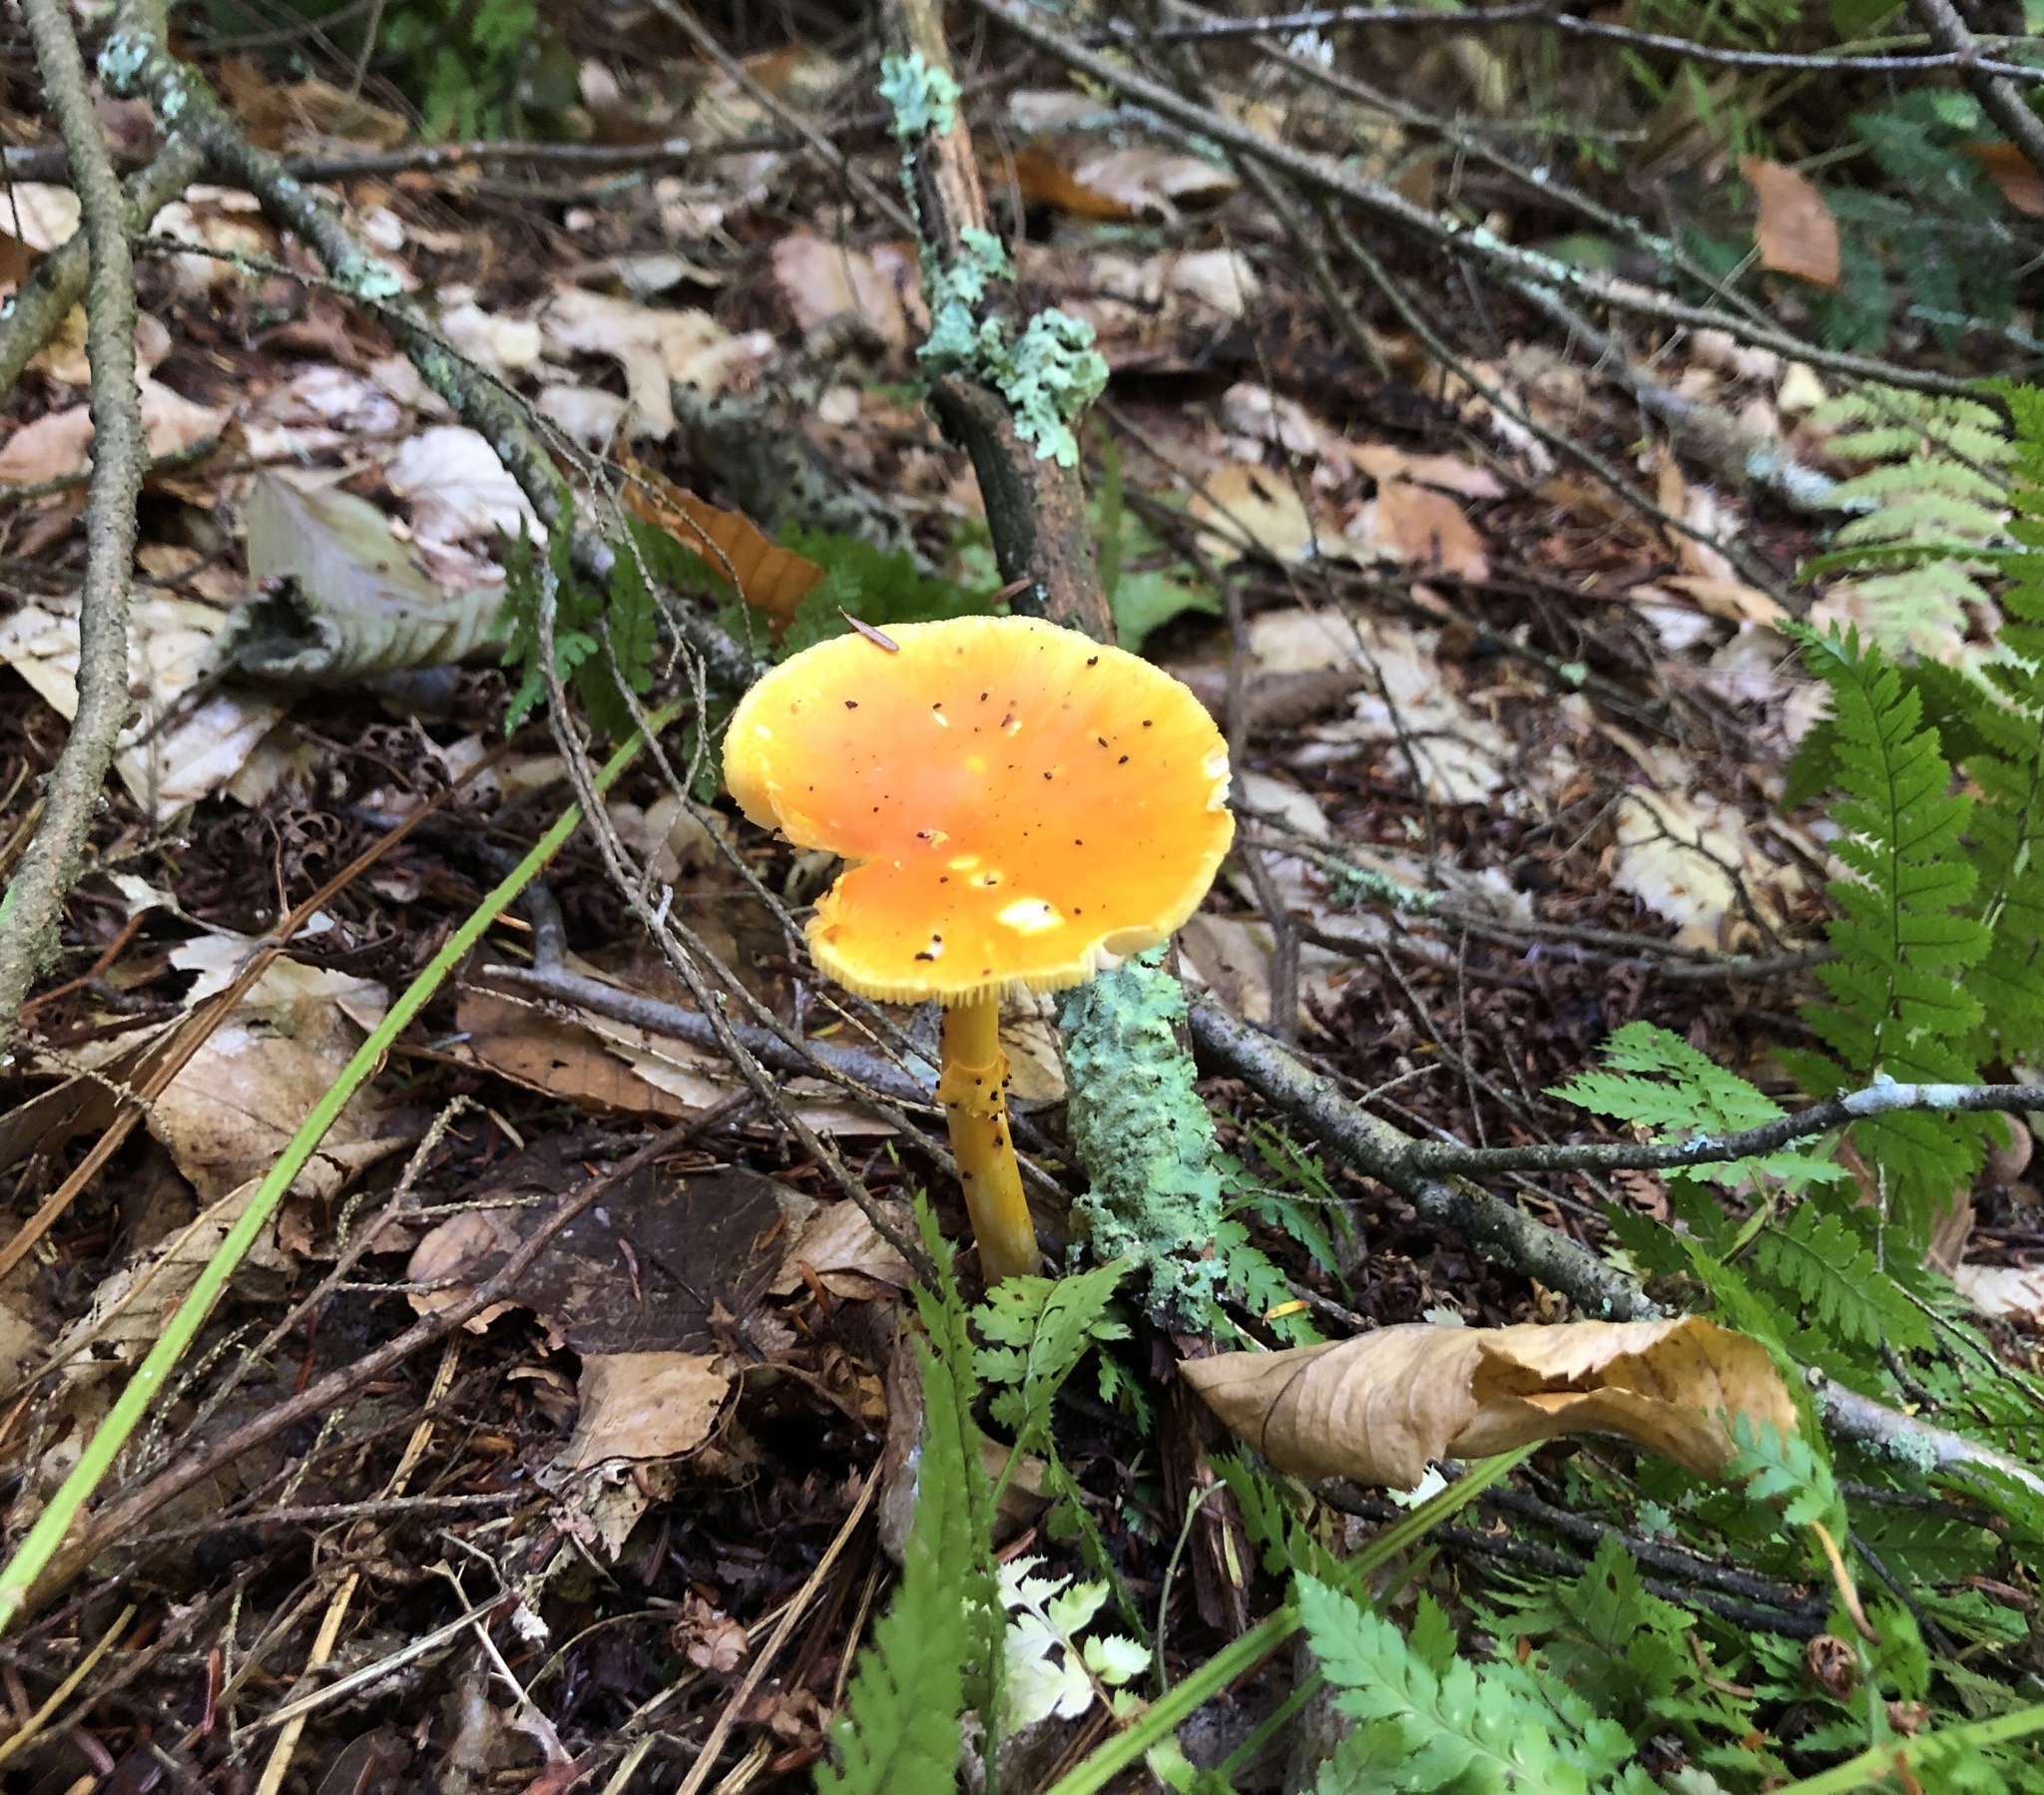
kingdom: Fungi
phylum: Basidiomycota
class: Agaricomycetes
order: Agaricales
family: Amanitaceae
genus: Amanita
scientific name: Amanita flavoconia
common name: Yellow patches
